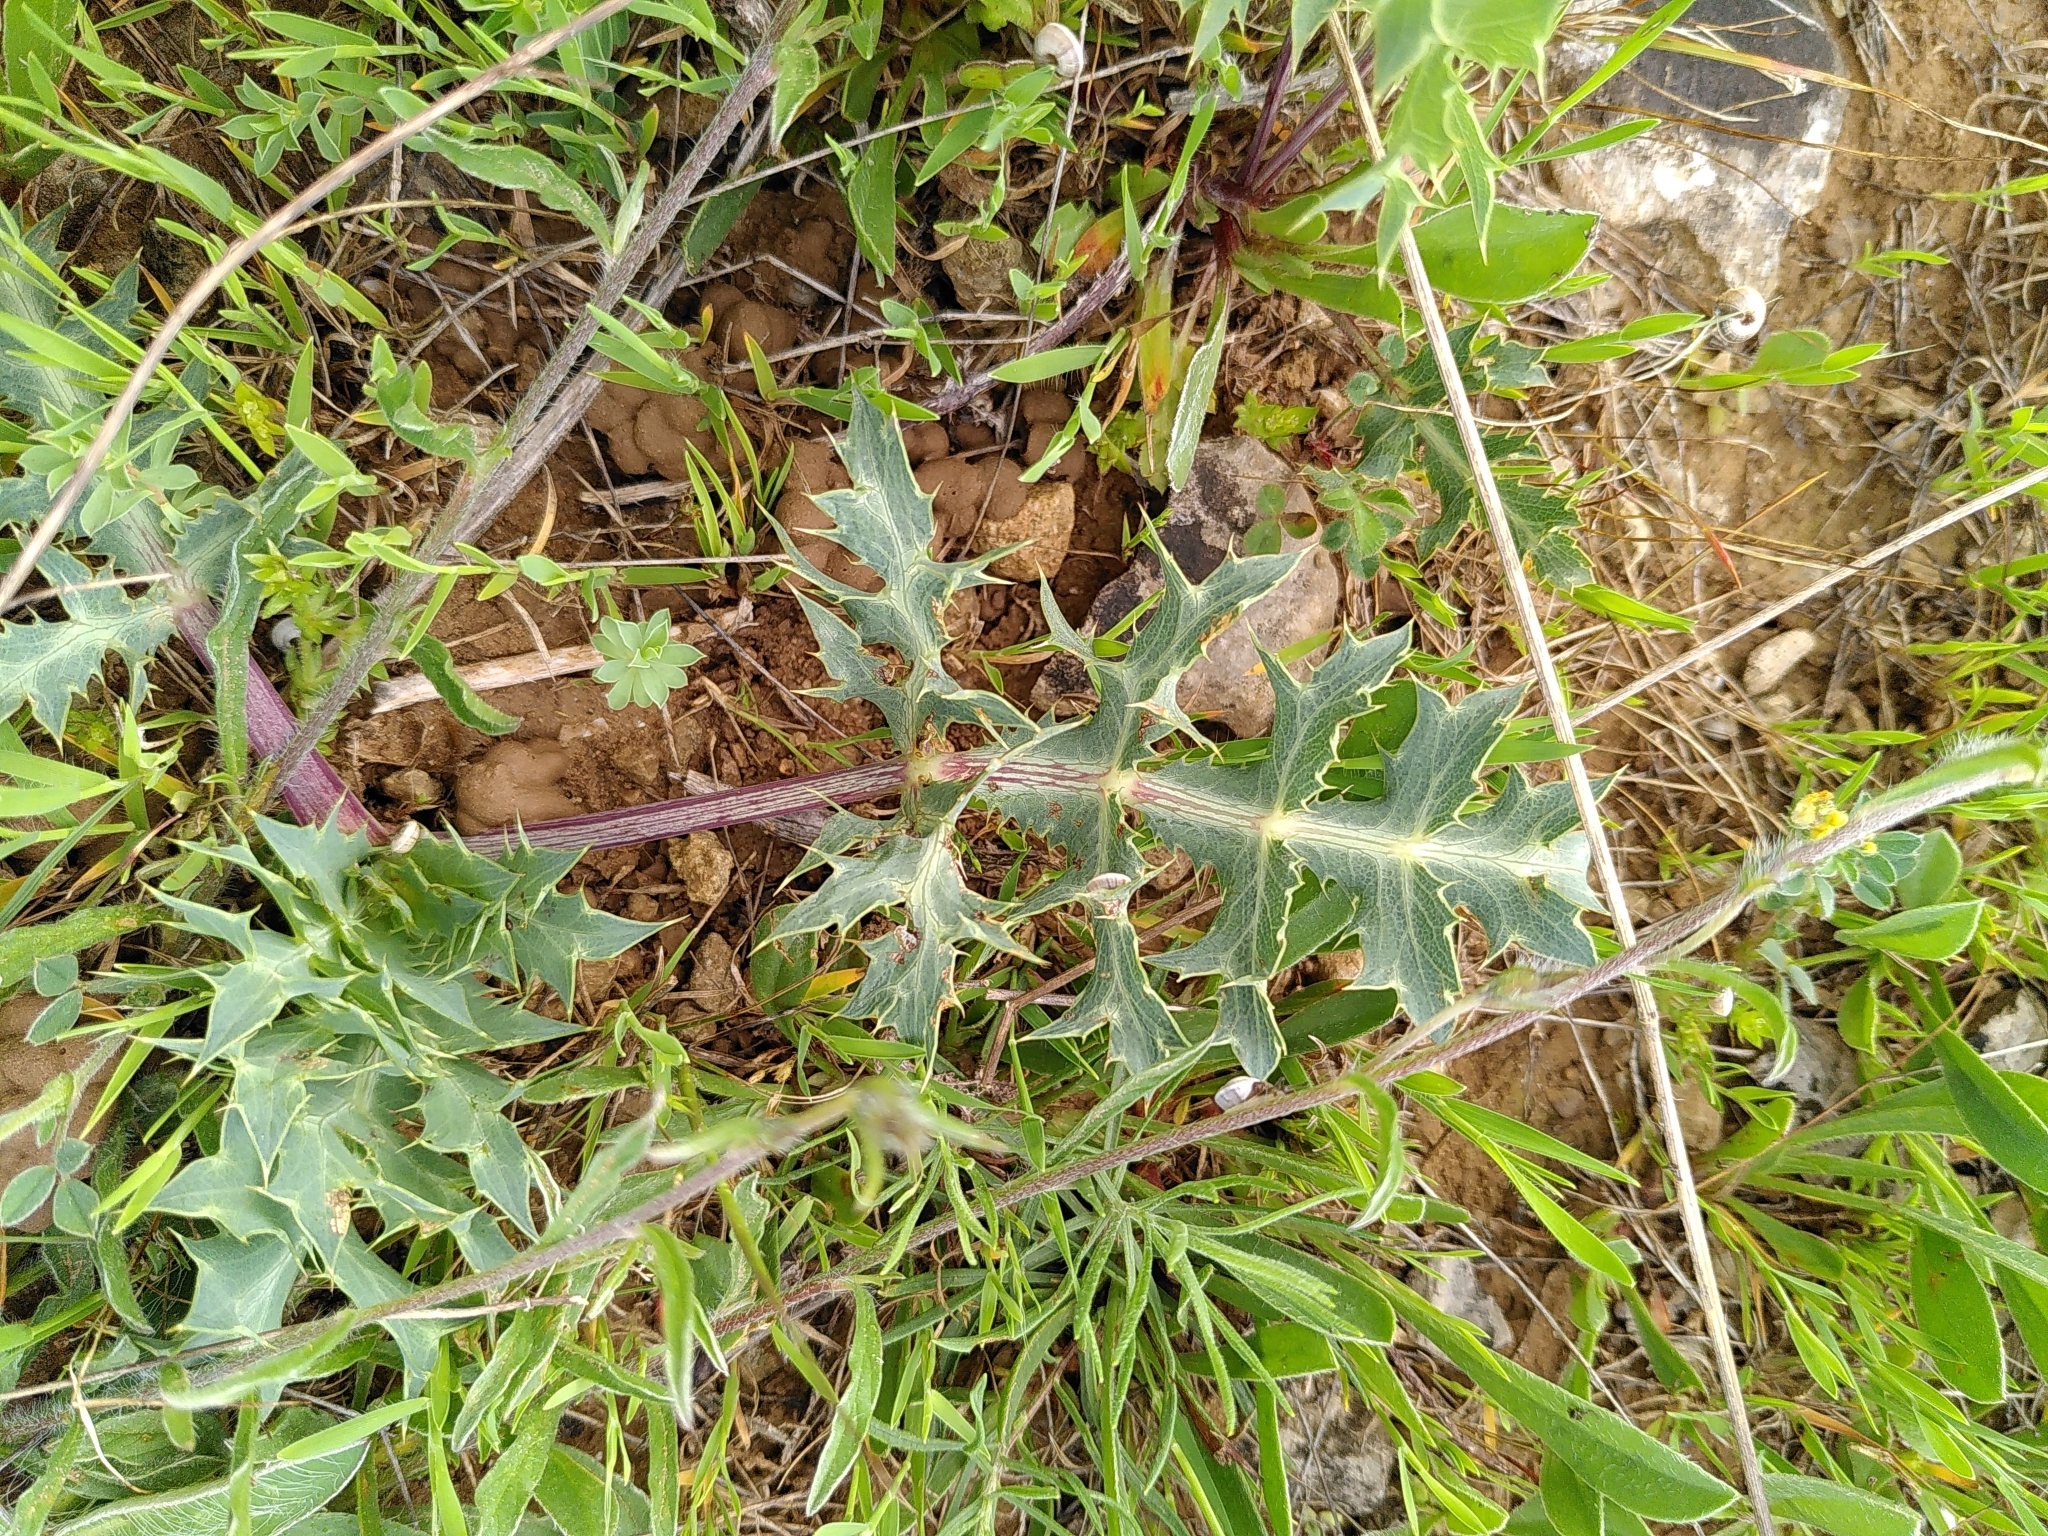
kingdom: Plantae
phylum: Tracheophyta
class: Magnoliopsida
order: Apiales
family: Apiaceae
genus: Eryngium
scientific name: Eryngium campestre
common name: Field eryngo
